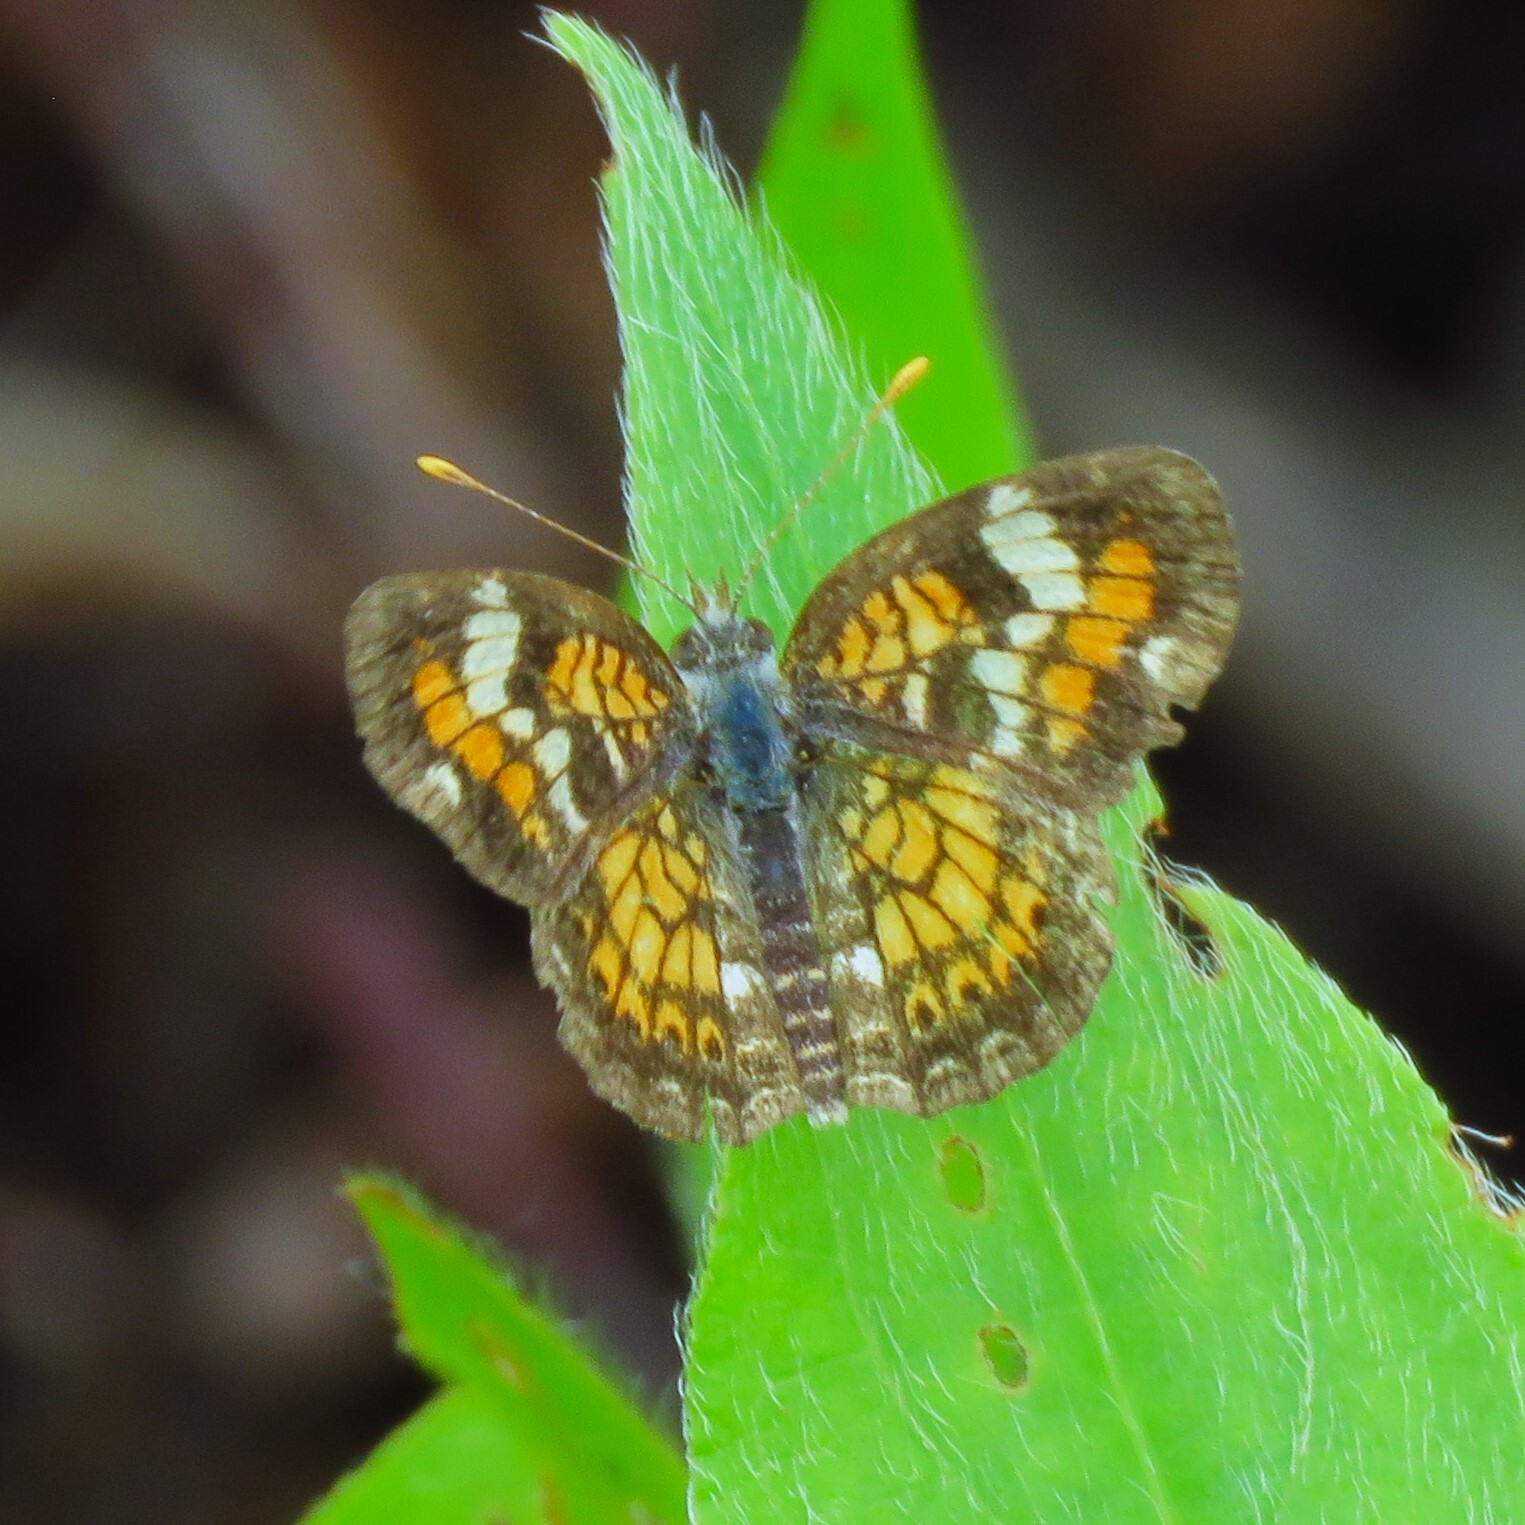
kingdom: Animalia
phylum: Arthropoda
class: Insecta
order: Lepidoptera
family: Nymphalidae
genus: Phyciodes
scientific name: Phyciodes phaon
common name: Phaon crescent
